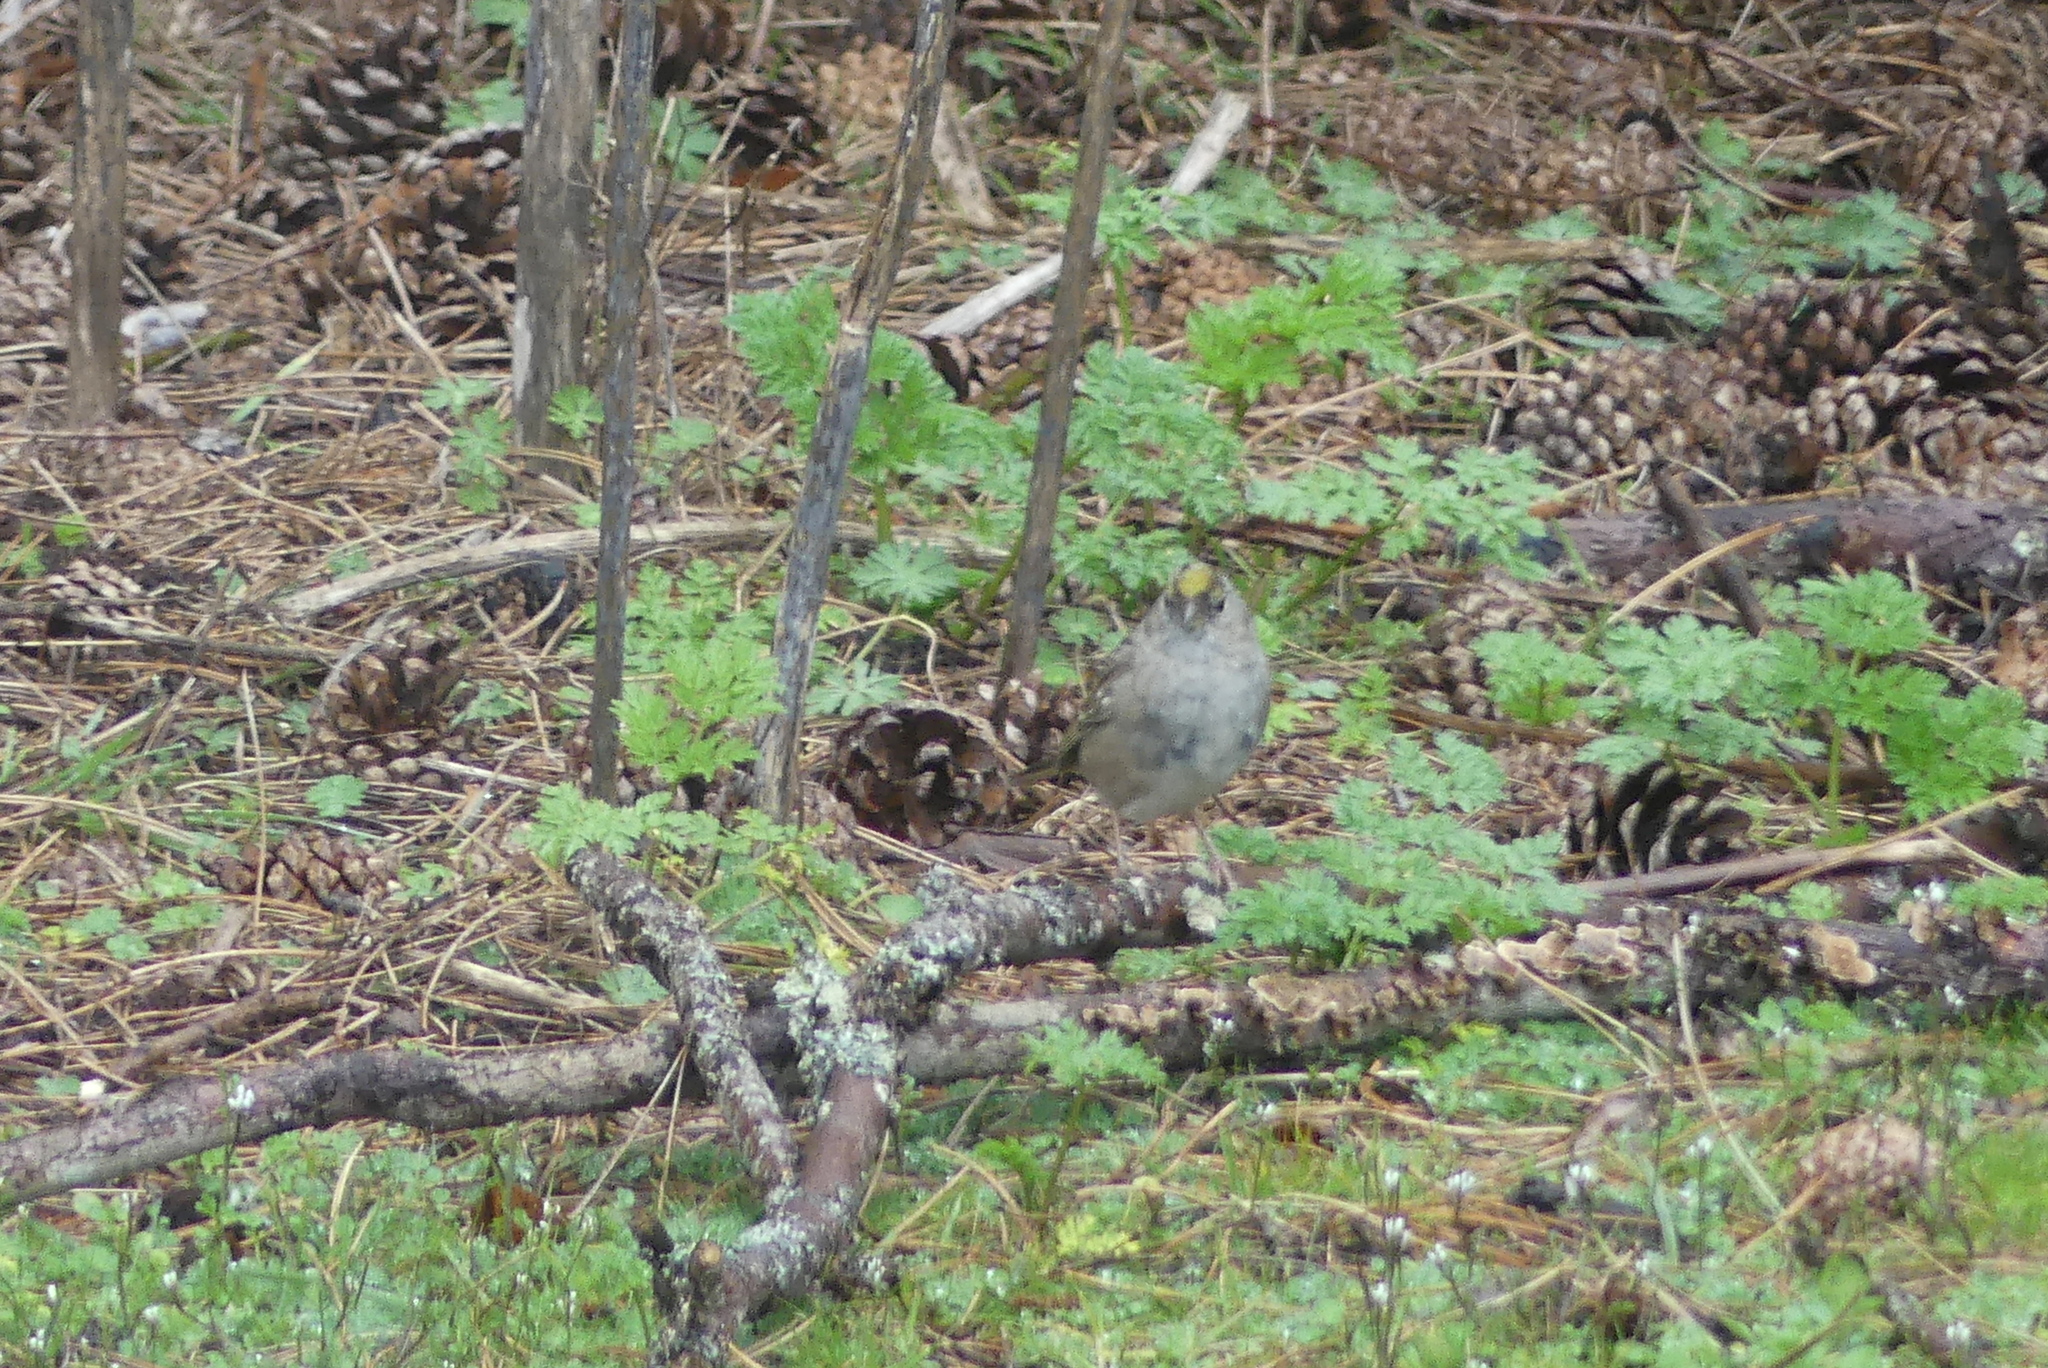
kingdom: Animalia
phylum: Chordata
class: Aves
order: Passeriformes
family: Passerellidae
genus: Zonotrichia
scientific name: Zonotrichia atricapilla
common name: Golden-crowned sparrow
